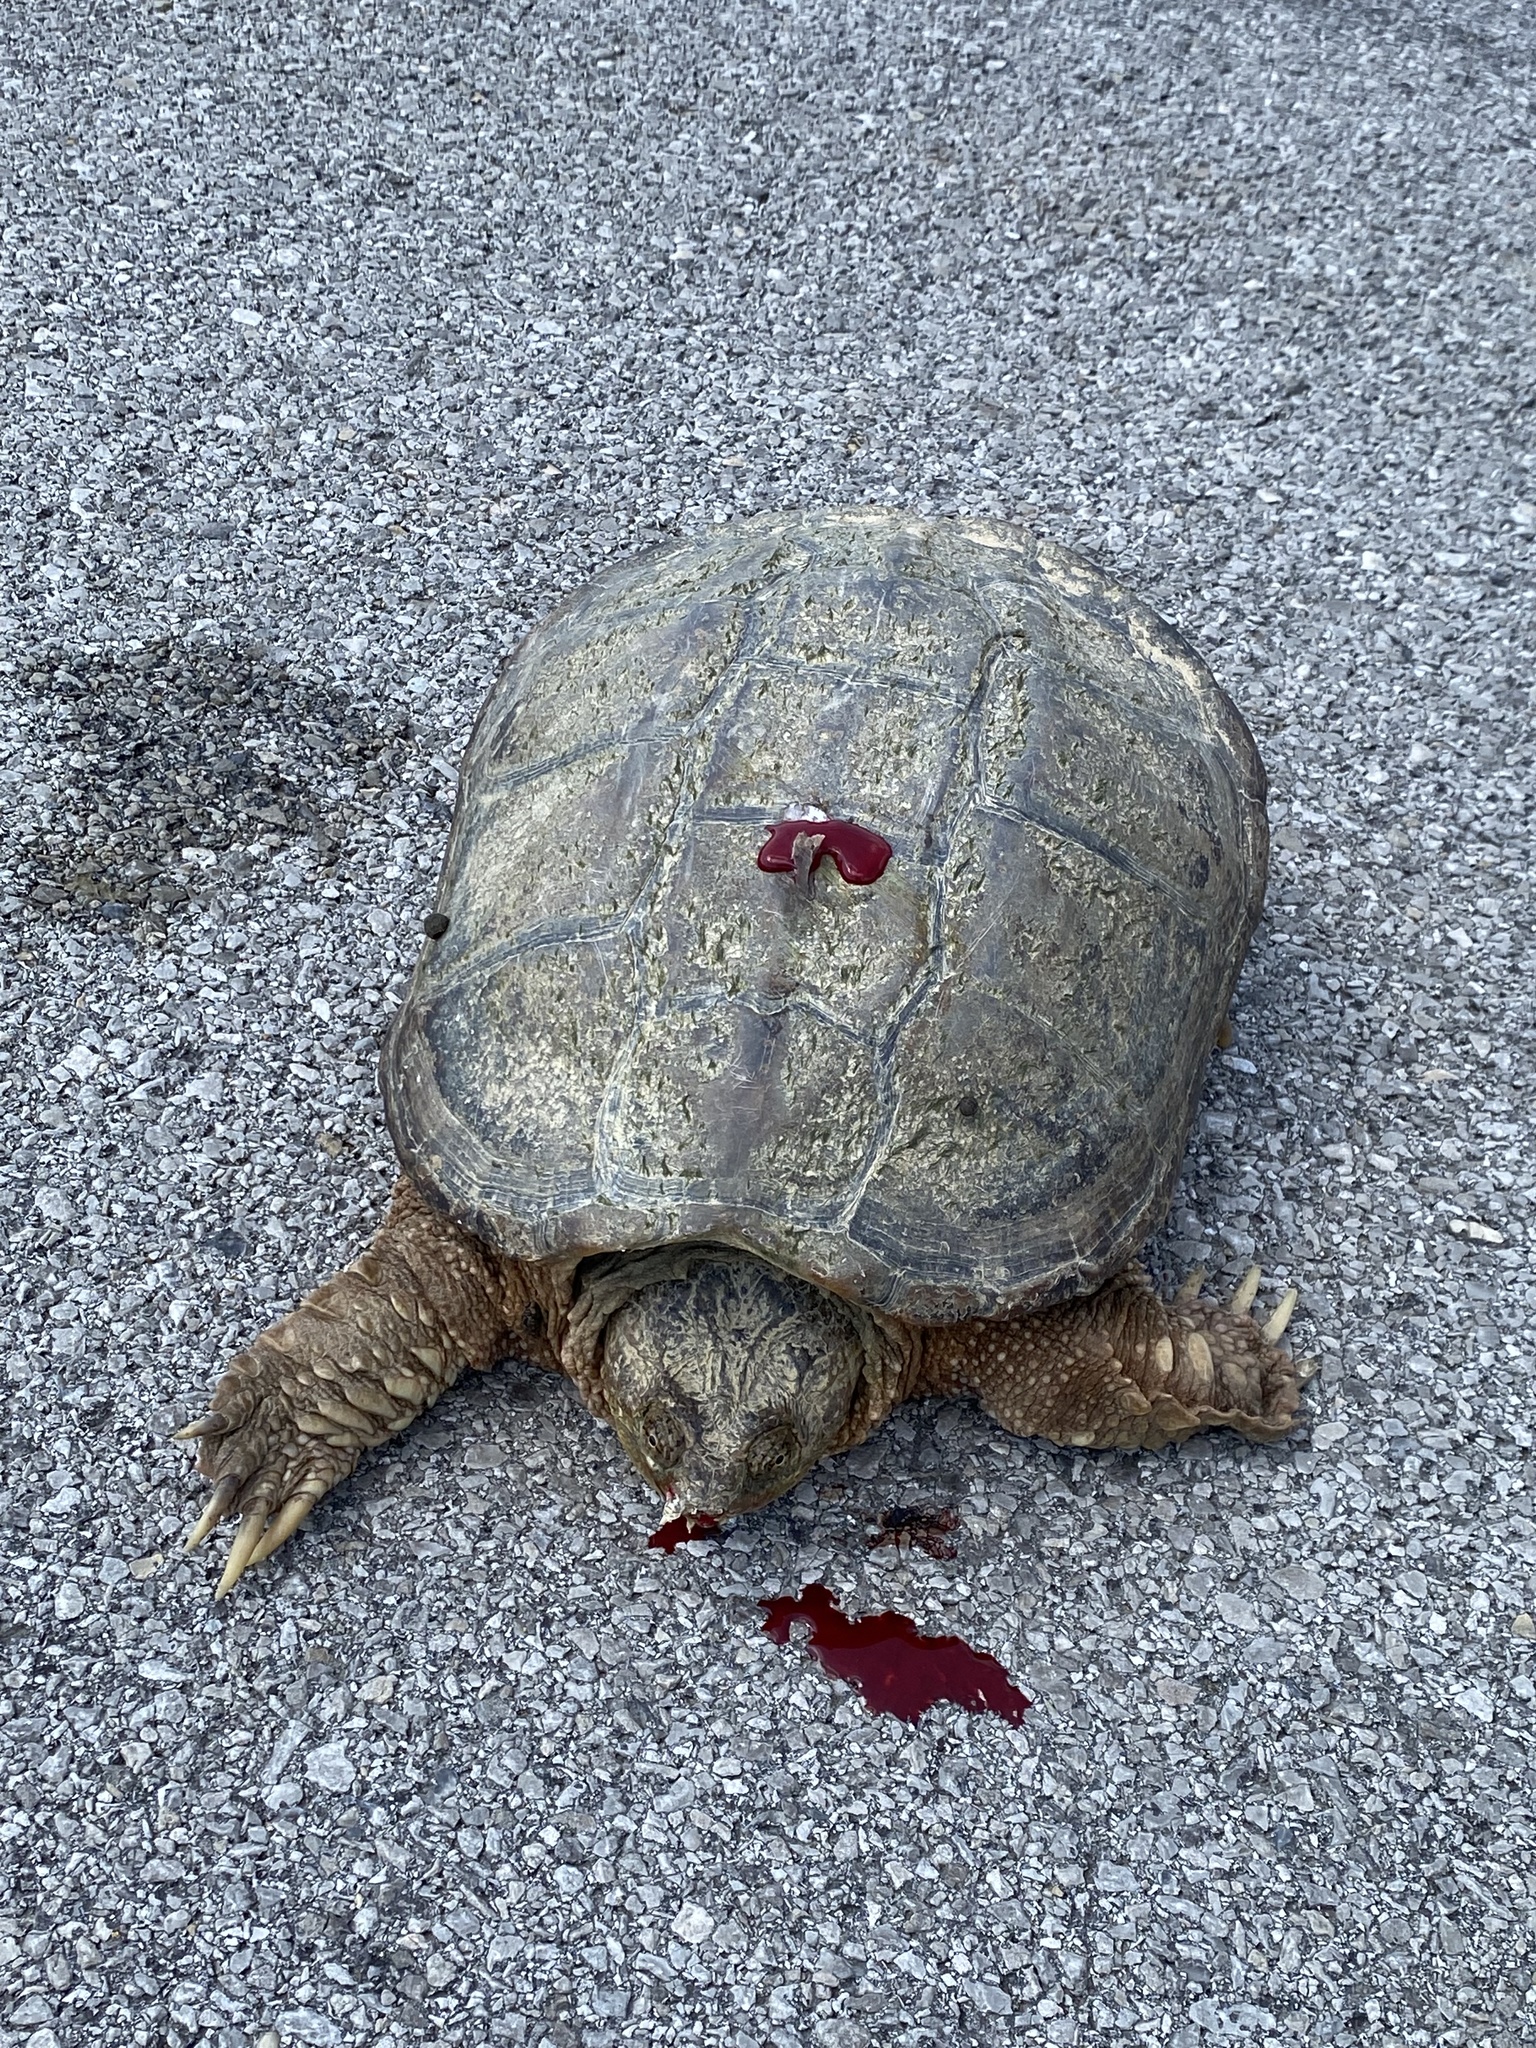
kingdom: Animalia
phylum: Chordata
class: Testudines
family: Chelydridae
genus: Chelydra
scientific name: Chelydra serpentina
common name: Common snapping turtle
